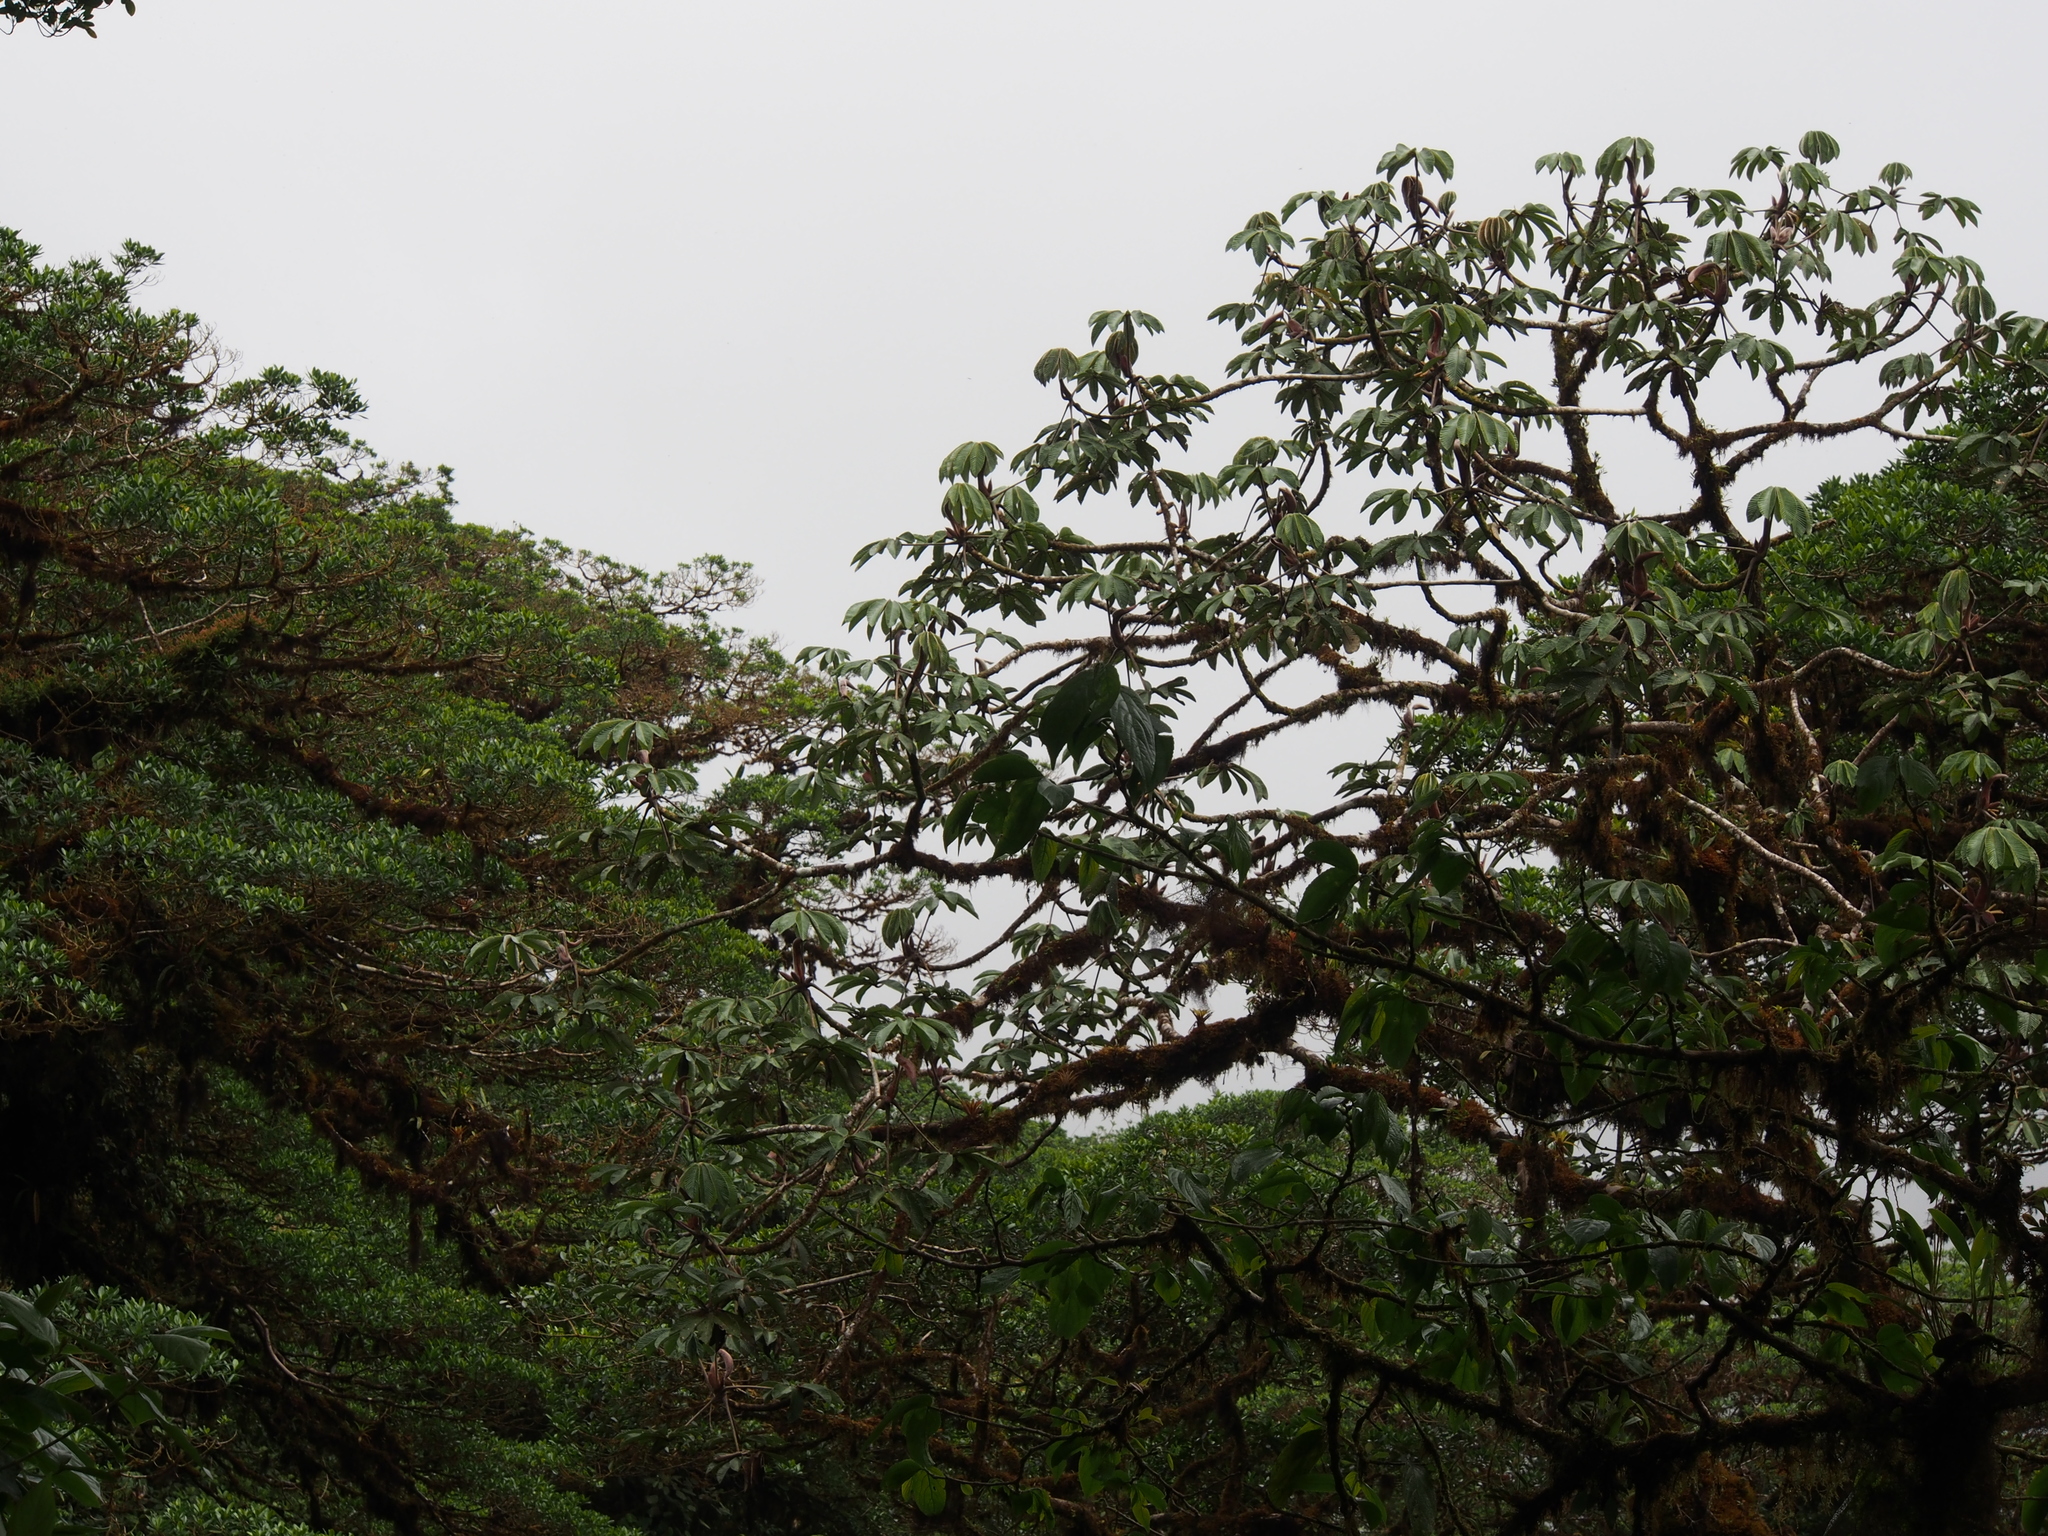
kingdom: Plantae
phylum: Tracheophyta
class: Magnoliopsida
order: Rosales
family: Urticaceae
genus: Cecropia
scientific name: Cecropia angustifolia
